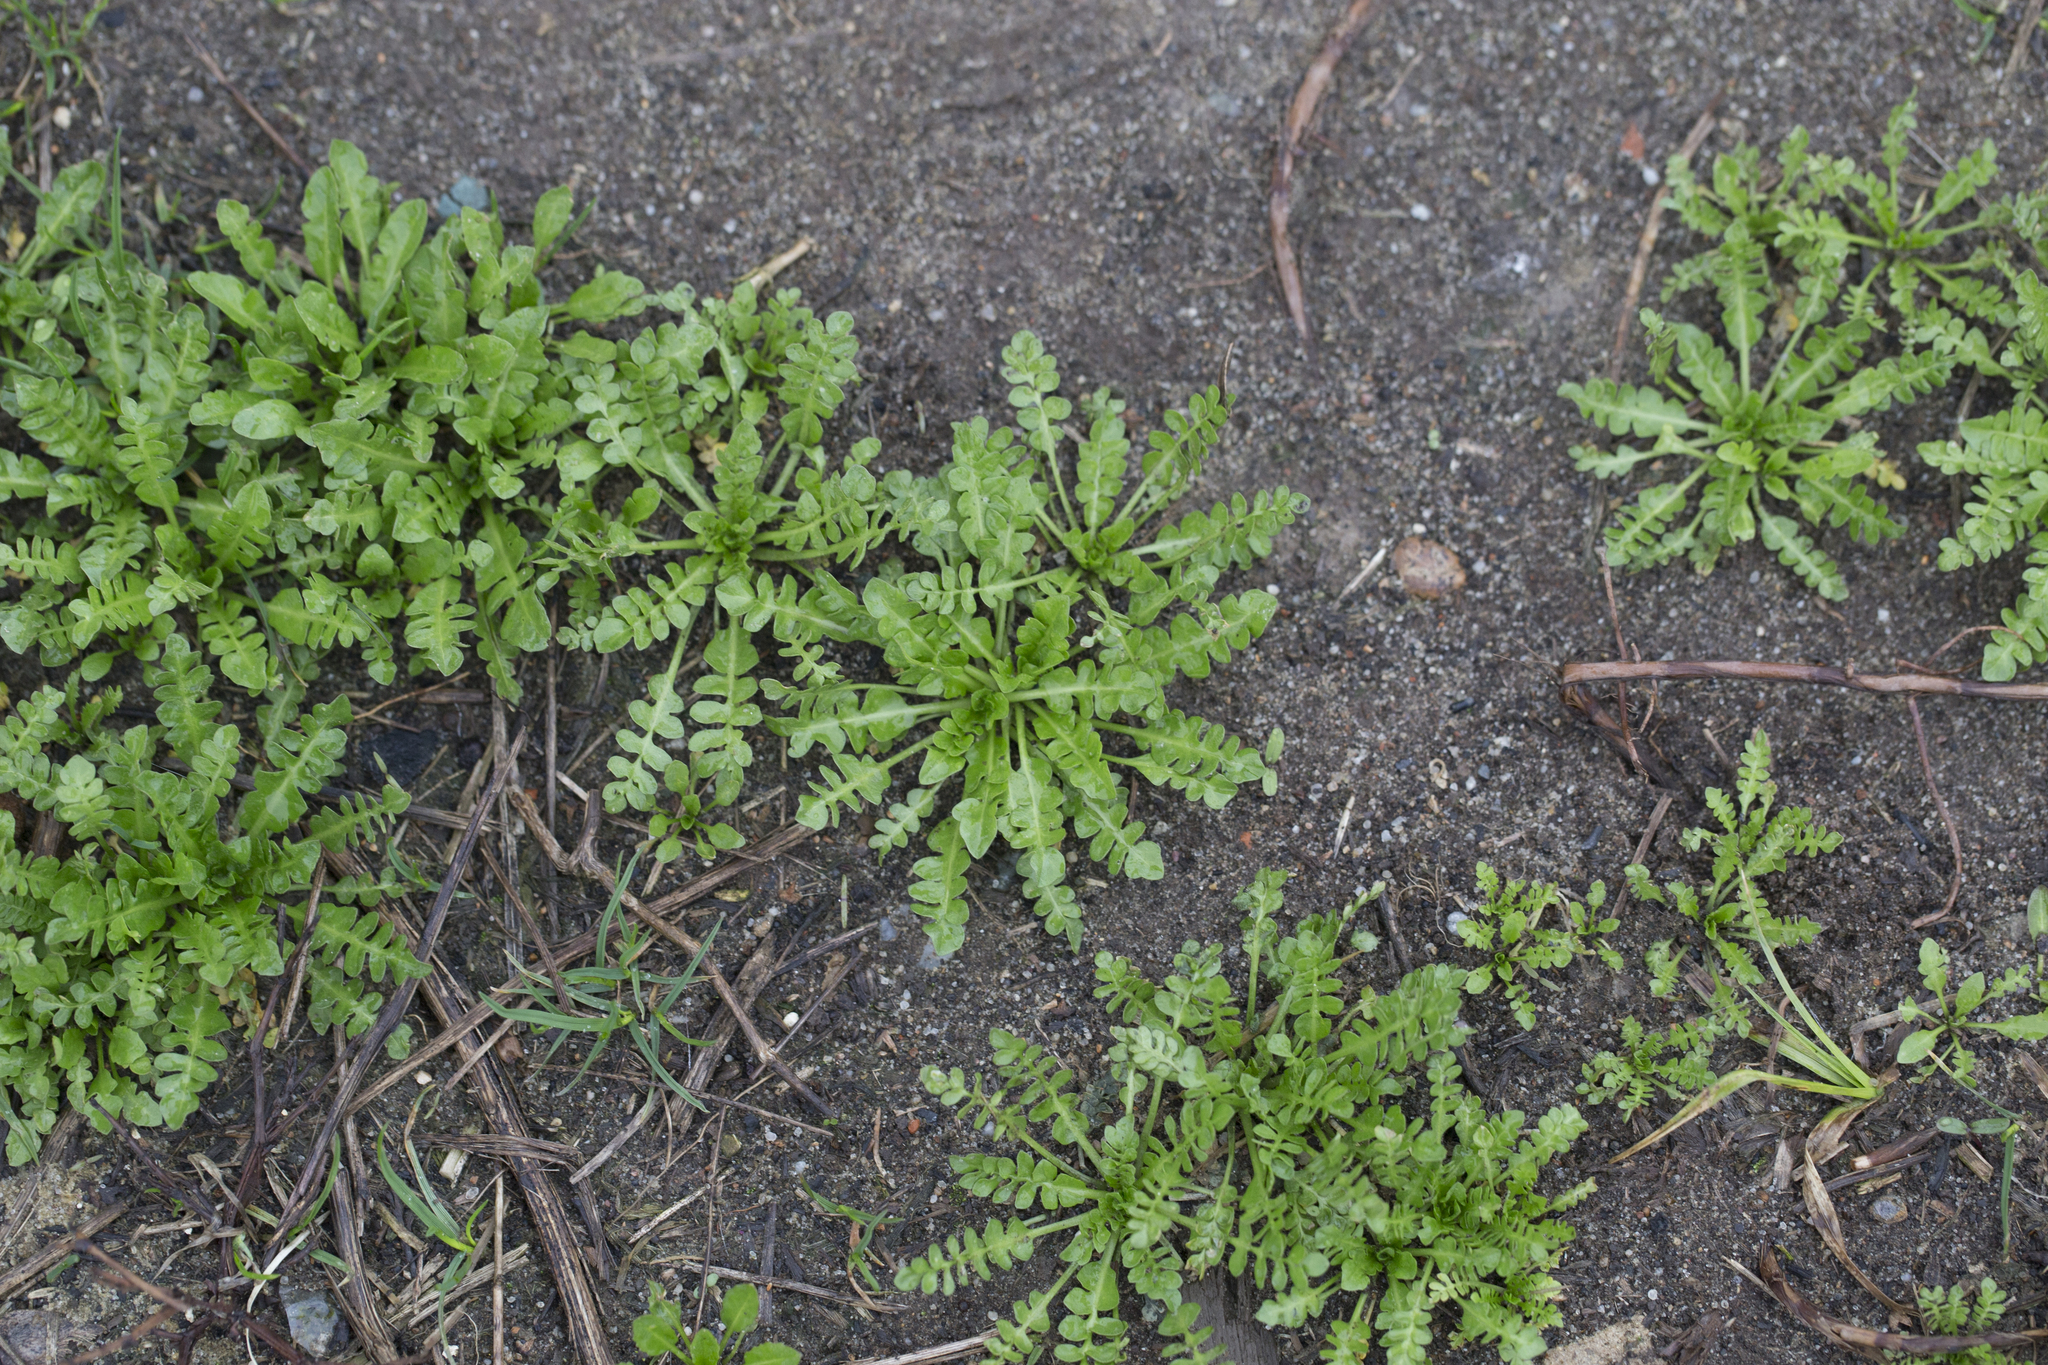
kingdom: Plantae
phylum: Tracheophyta
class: Magnoliopsida
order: Brassicales
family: Brassicaceae
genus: Capsella
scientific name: Capsella bursa-pastoris
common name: Shepherd's purse
